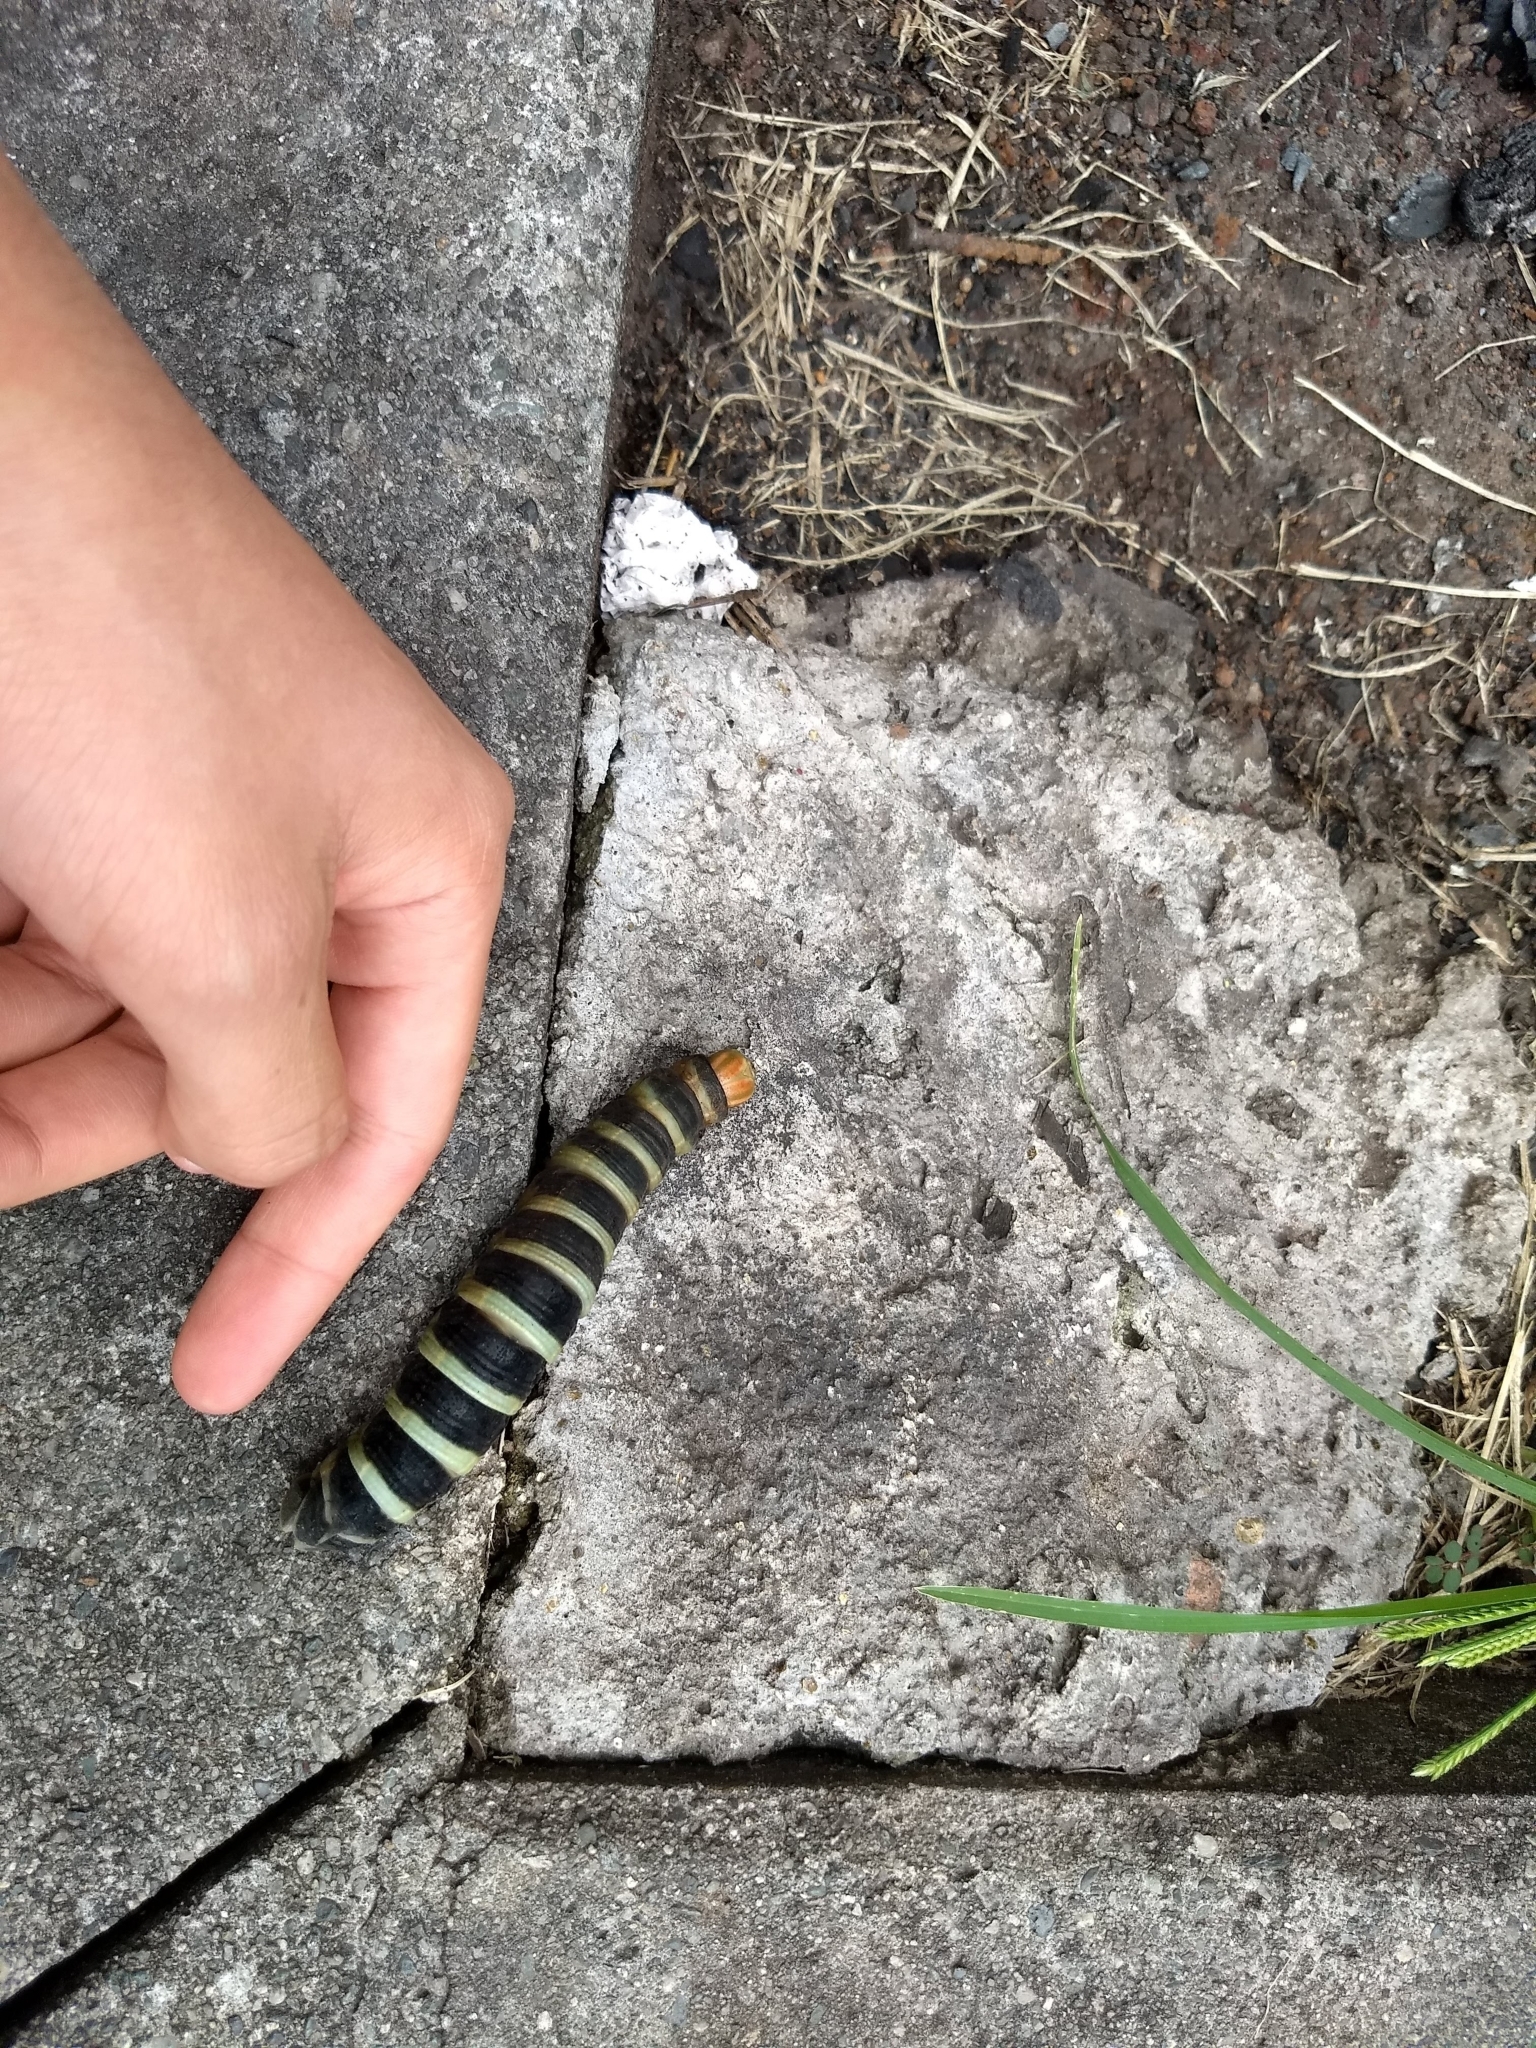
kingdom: Animalia
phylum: Arthropoda
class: Insecta
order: Lepidoptera
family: Sphingidae
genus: Pachylia
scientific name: Pachylia syces
